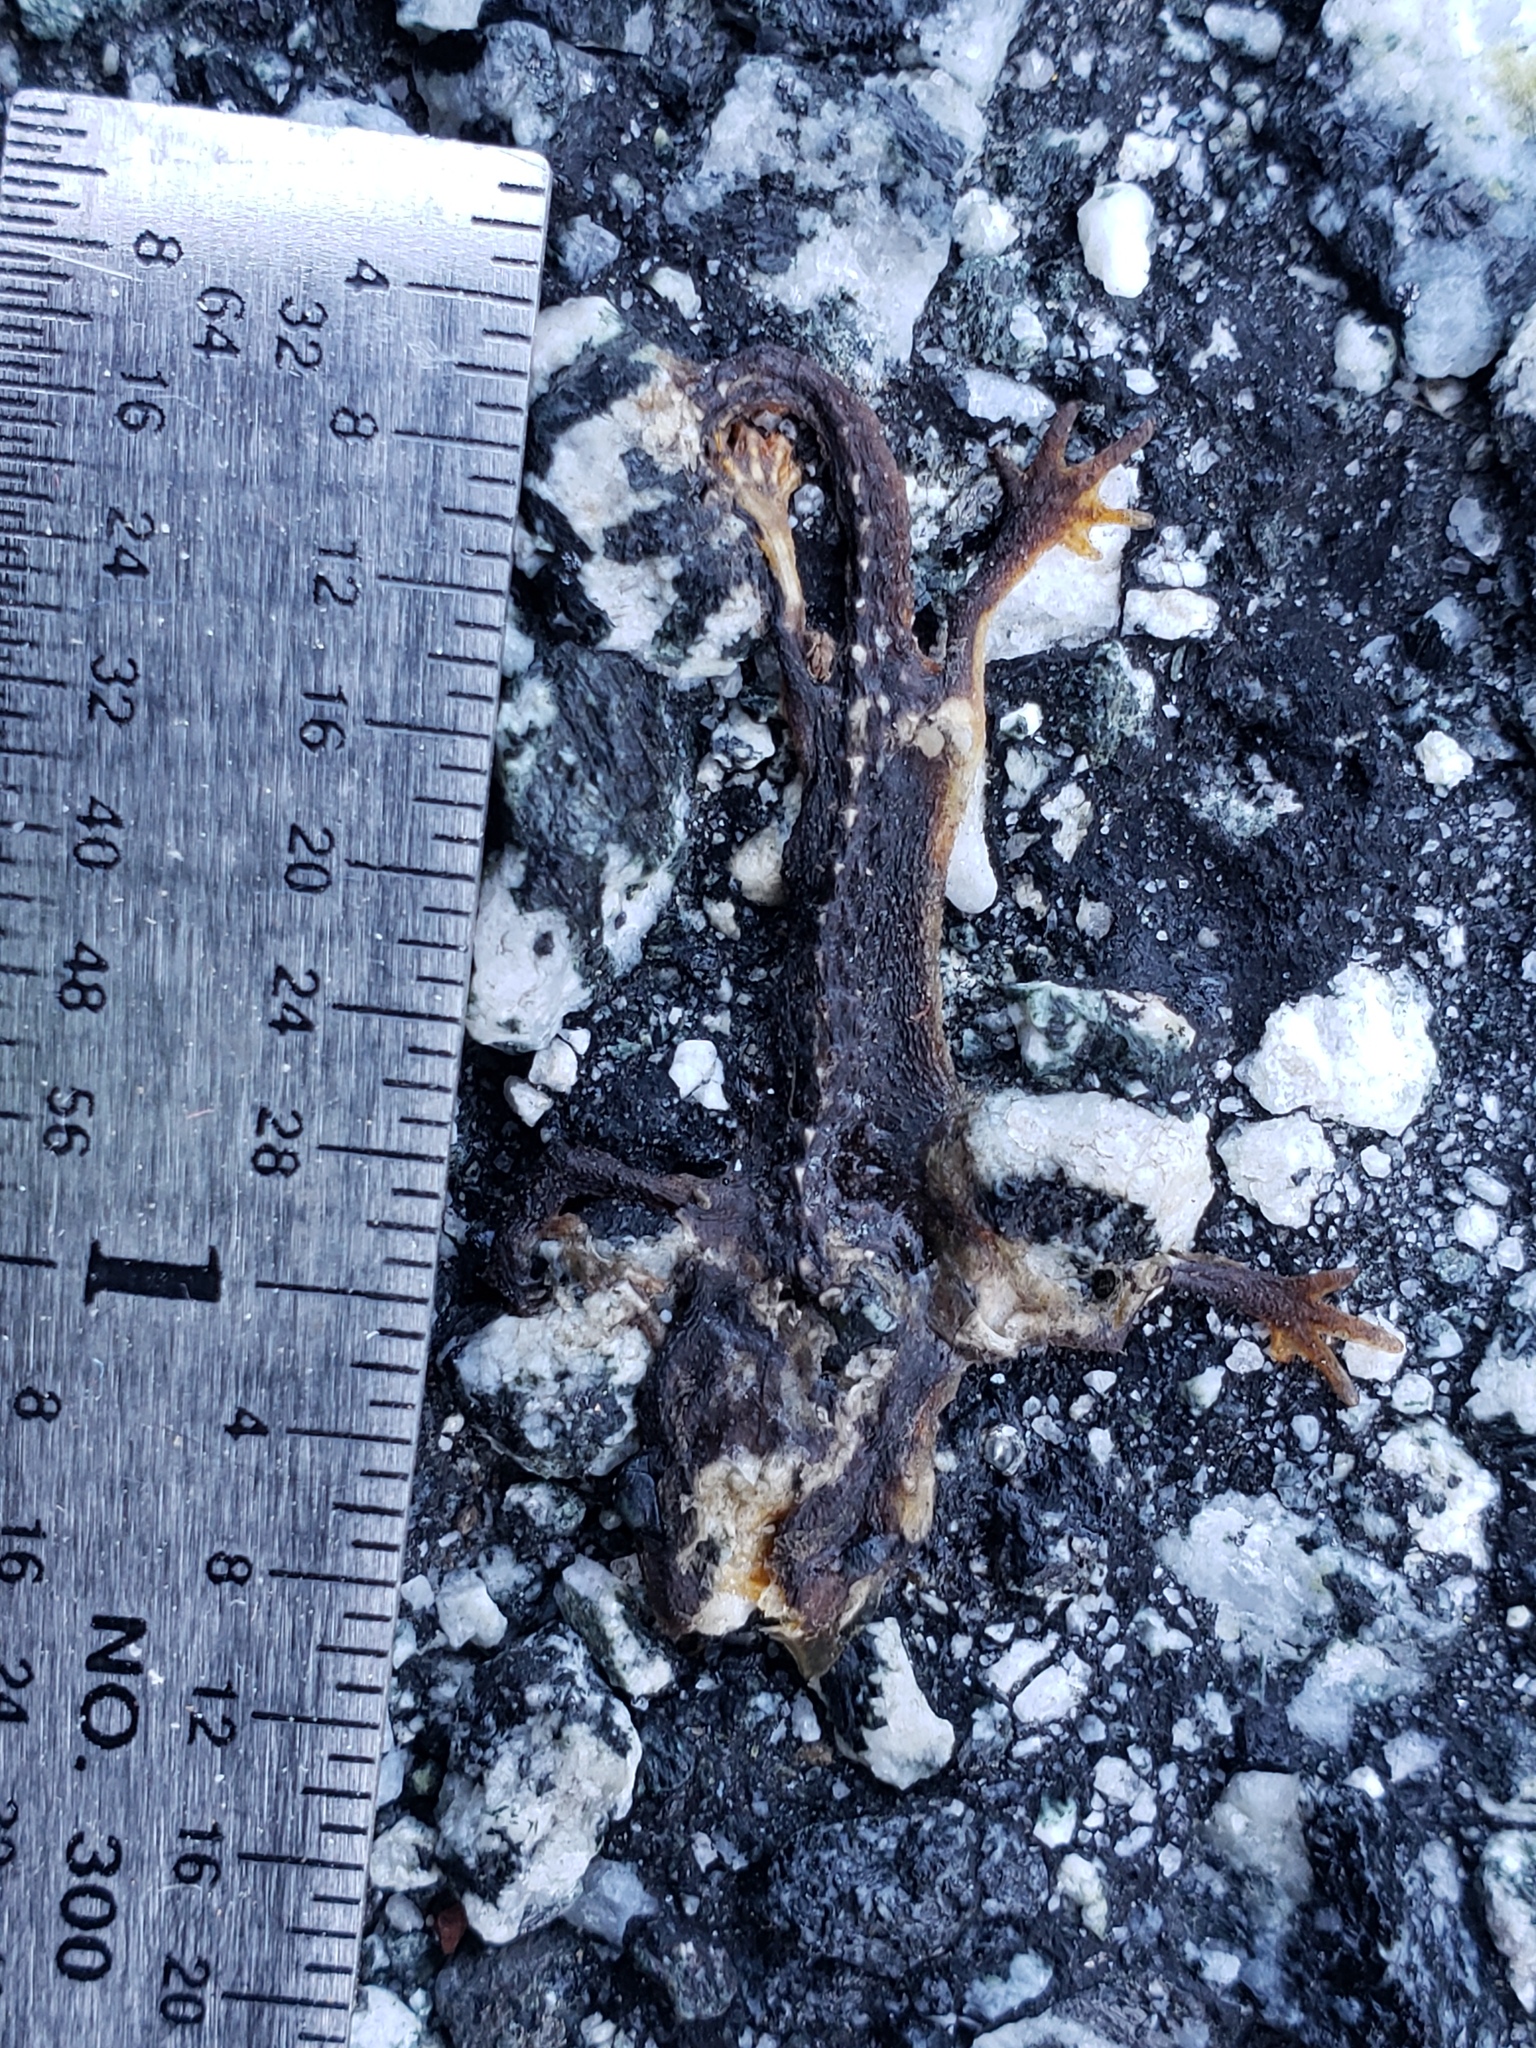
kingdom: Animalia
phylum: Chordata
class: Amphibia
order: Caudata
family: Salamandridae
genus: Taricha
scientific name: Taricha
